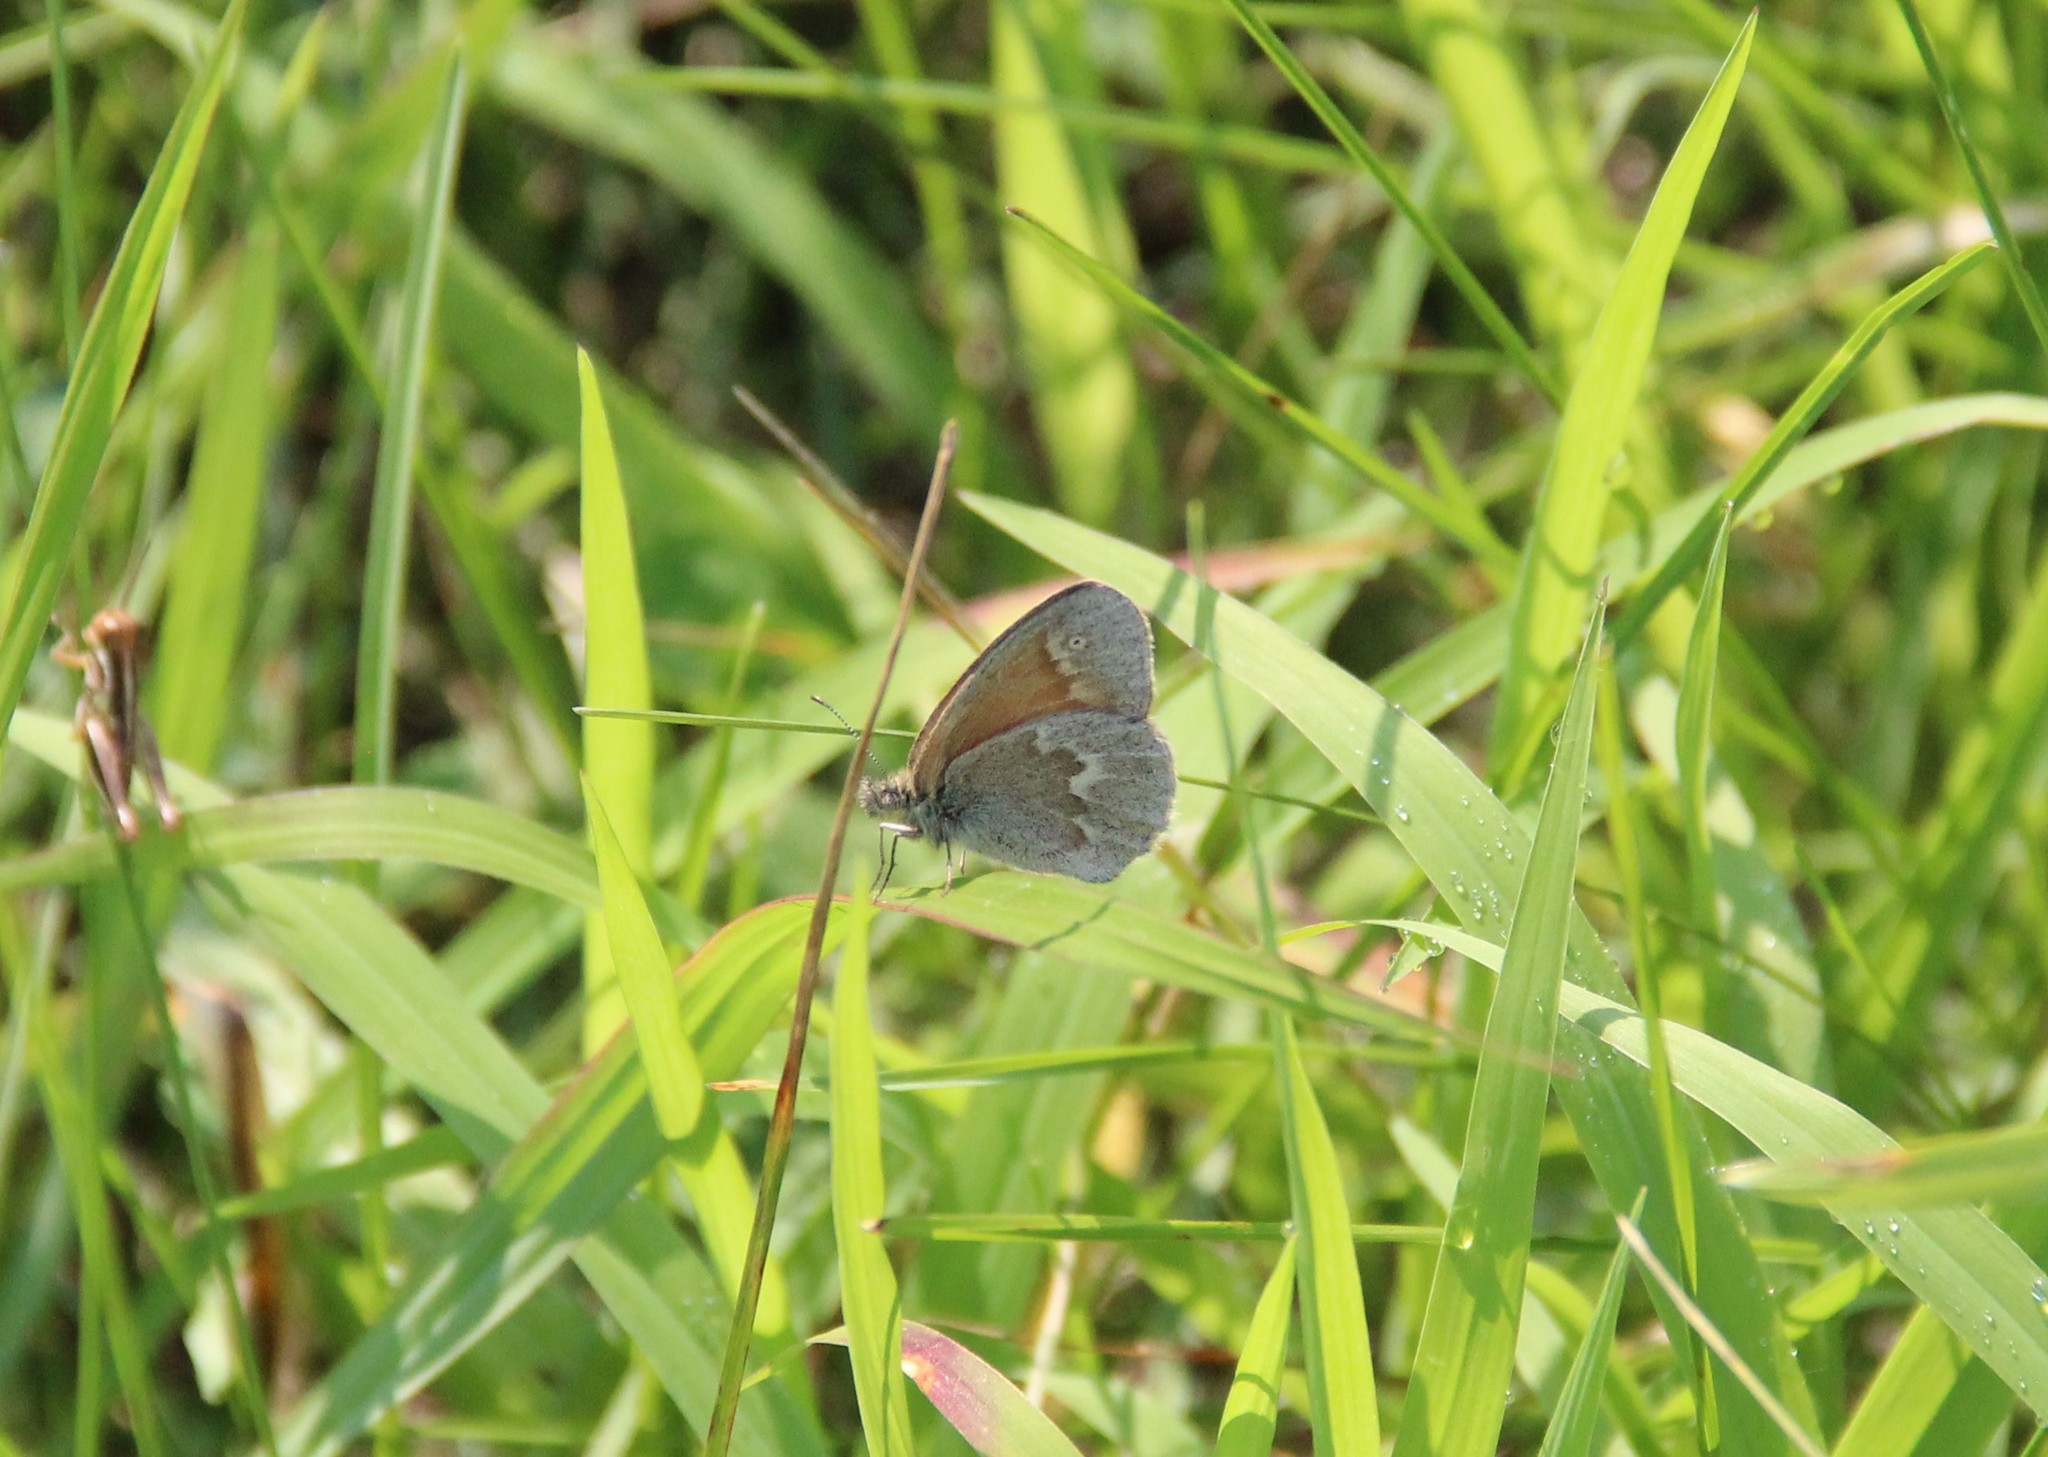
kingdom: Animalia
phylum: Arthropoda
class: Insecta
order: Lepidoptera
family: Nymphalidae
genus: Coenonympha
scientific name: Coenonympha california
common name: Common ringlet
